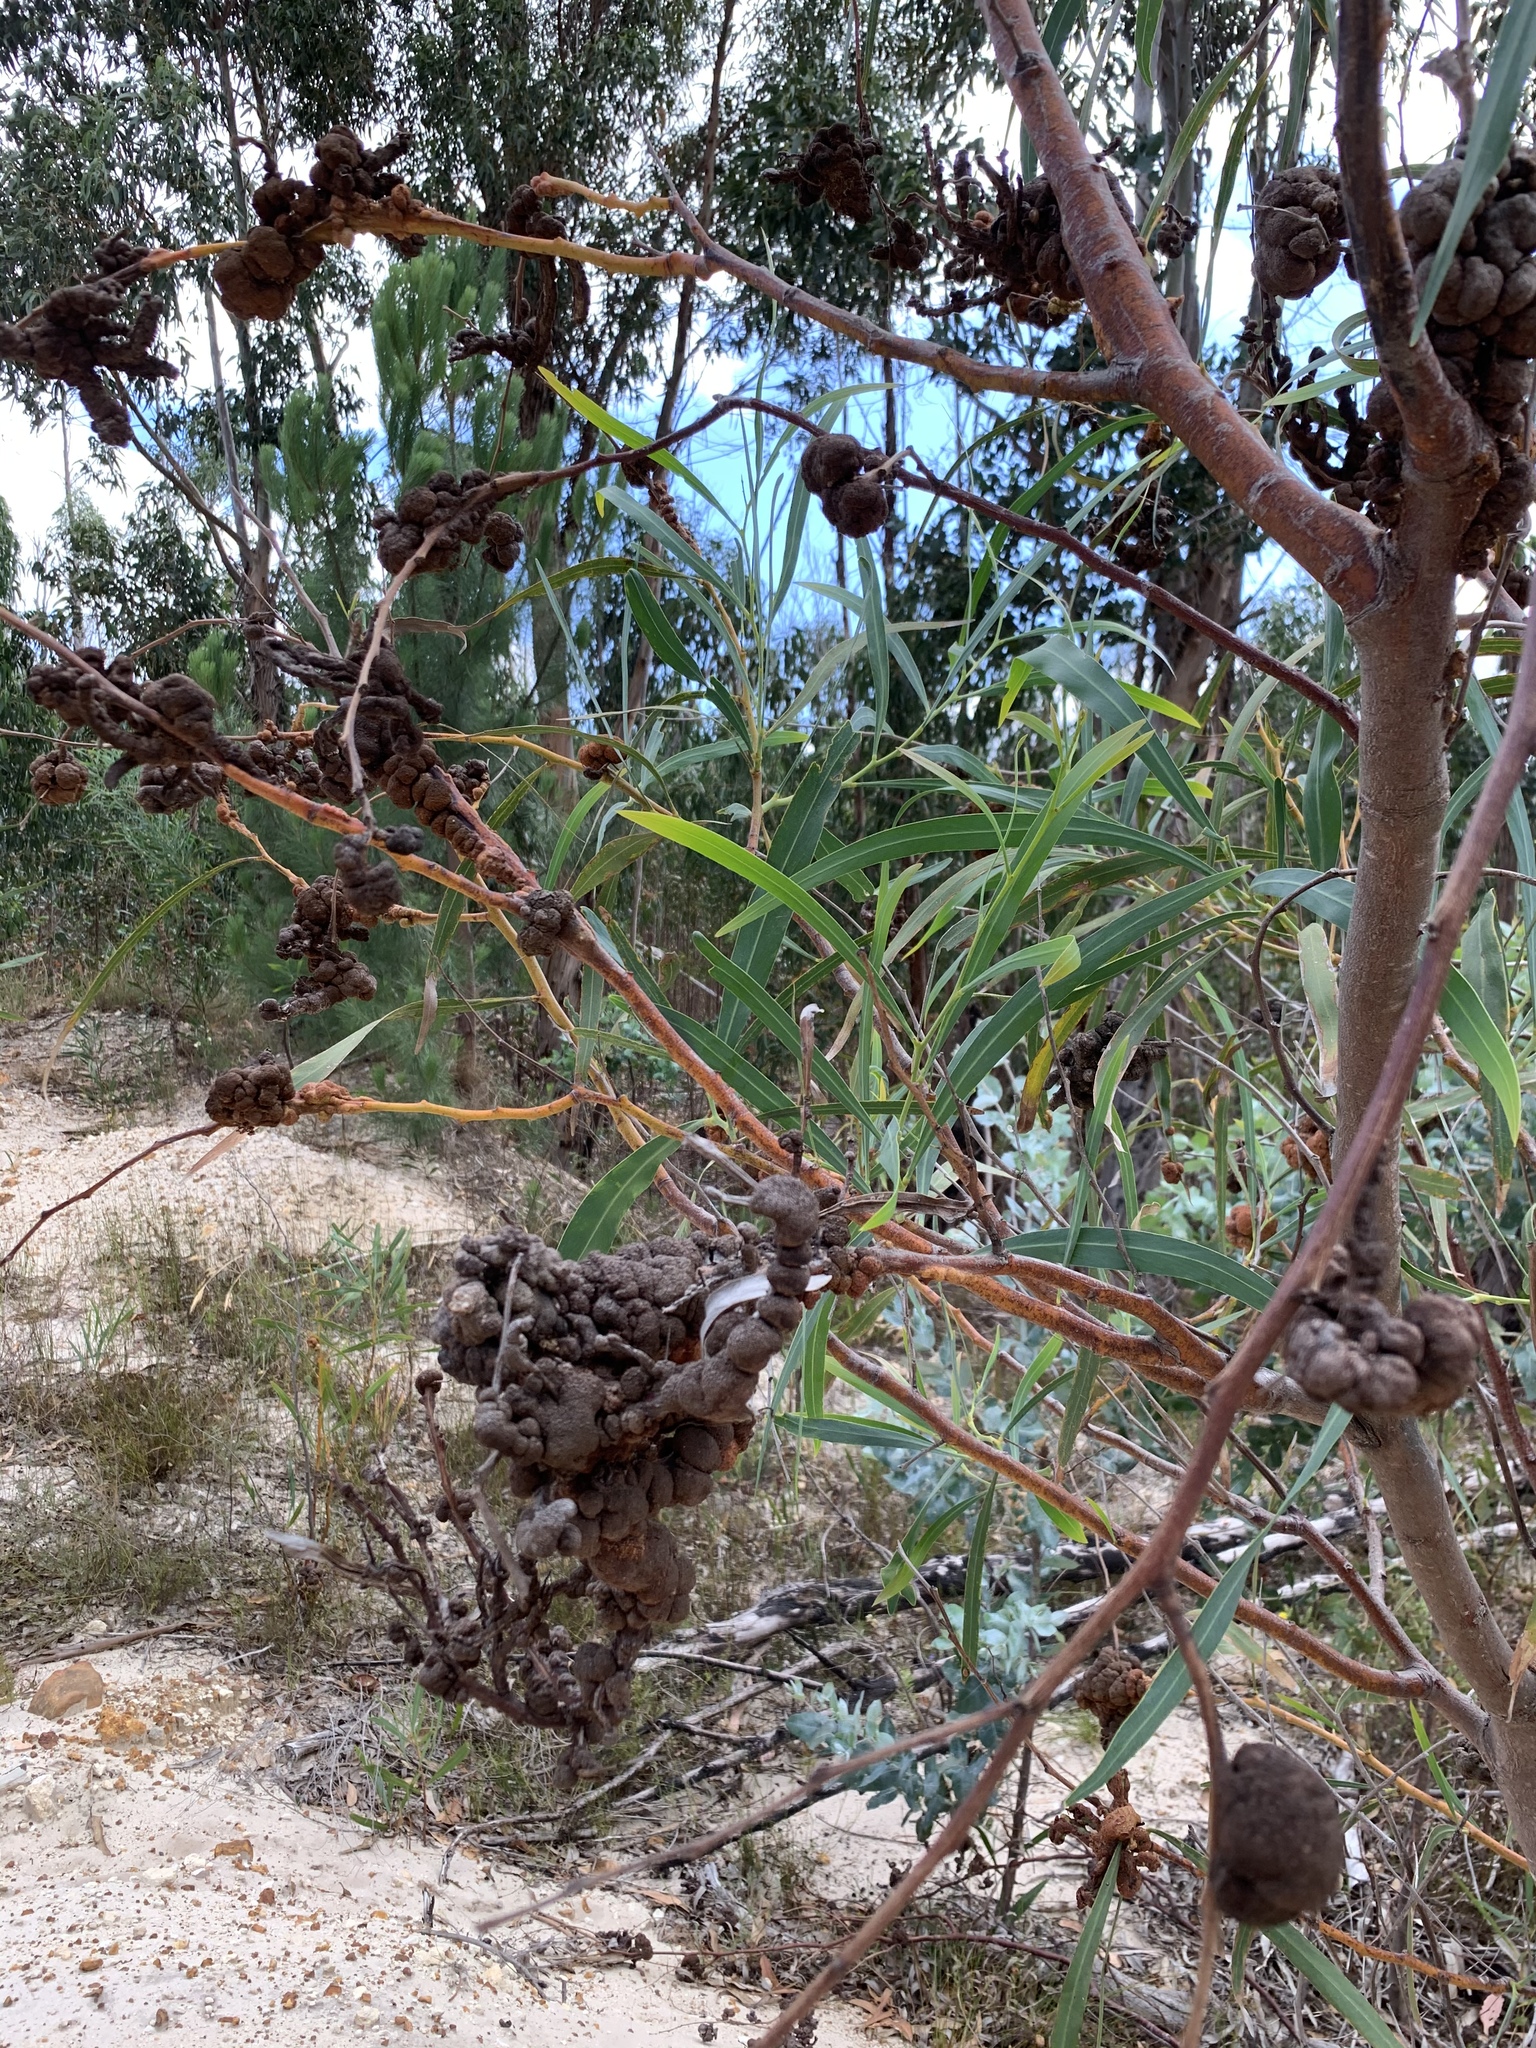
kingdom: Plantae
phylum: Tracheophyta
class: Magnoliopsida
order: Fabales
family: Fabaceae
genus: Acacia
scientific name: Acacia saligna
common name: Orange wattle
